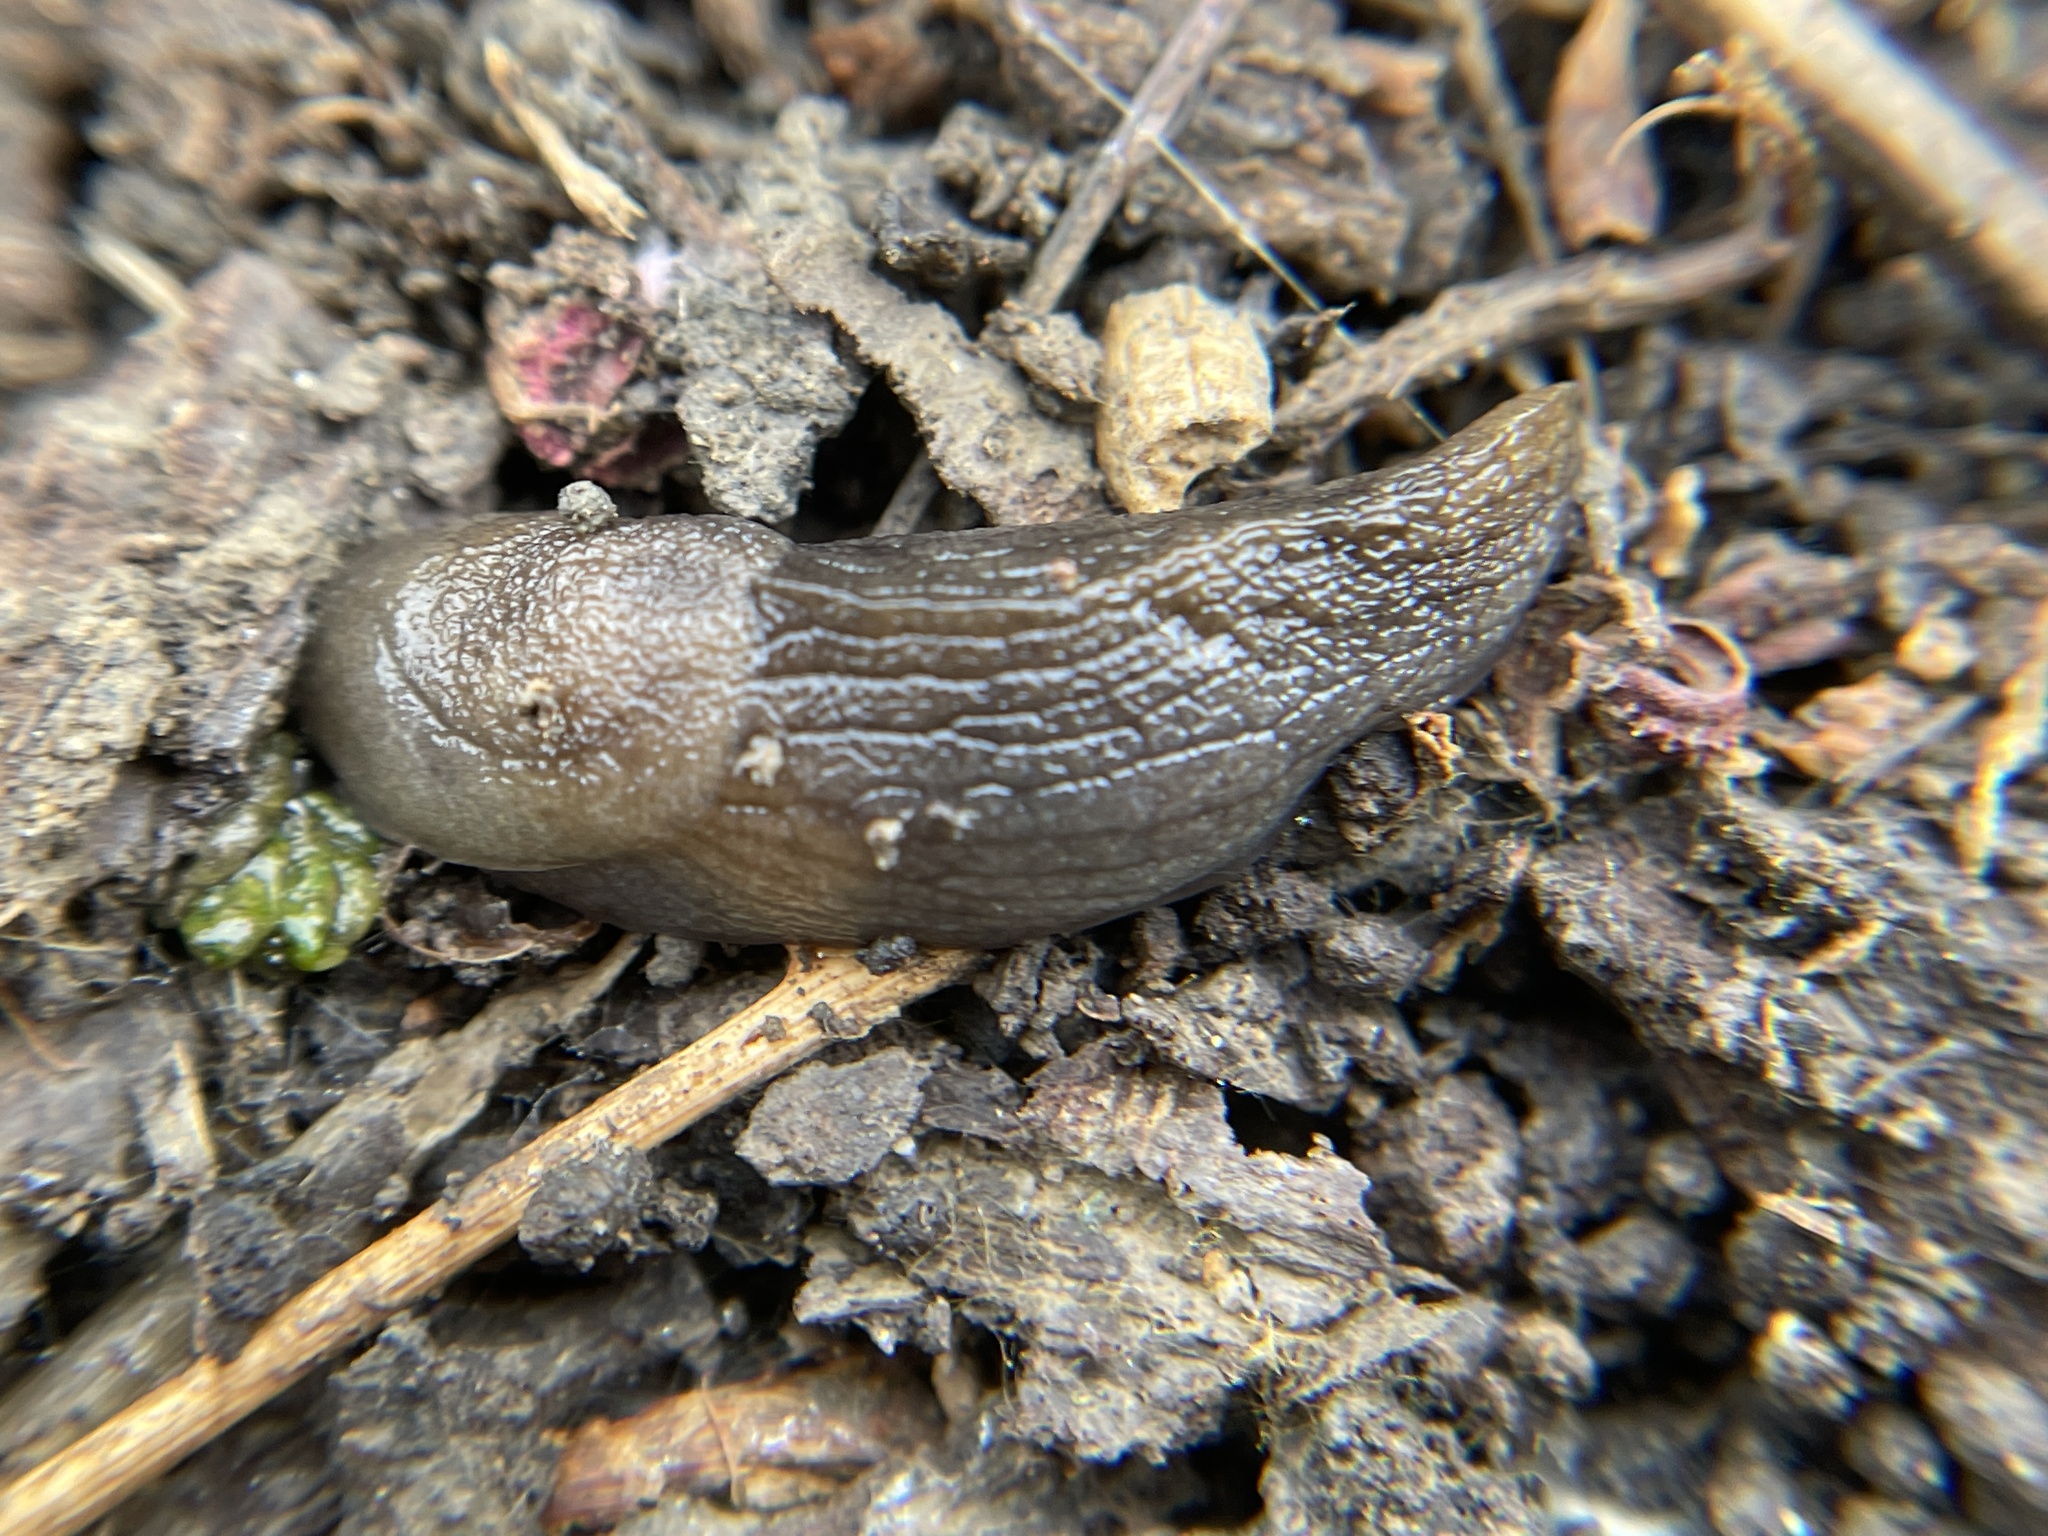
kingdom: Animalia
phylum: Mollusca
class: Gastropoda
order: Stylommatophora
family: Milacidae
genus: Milax
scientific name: Milax gagates
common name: Greenhouse slug
